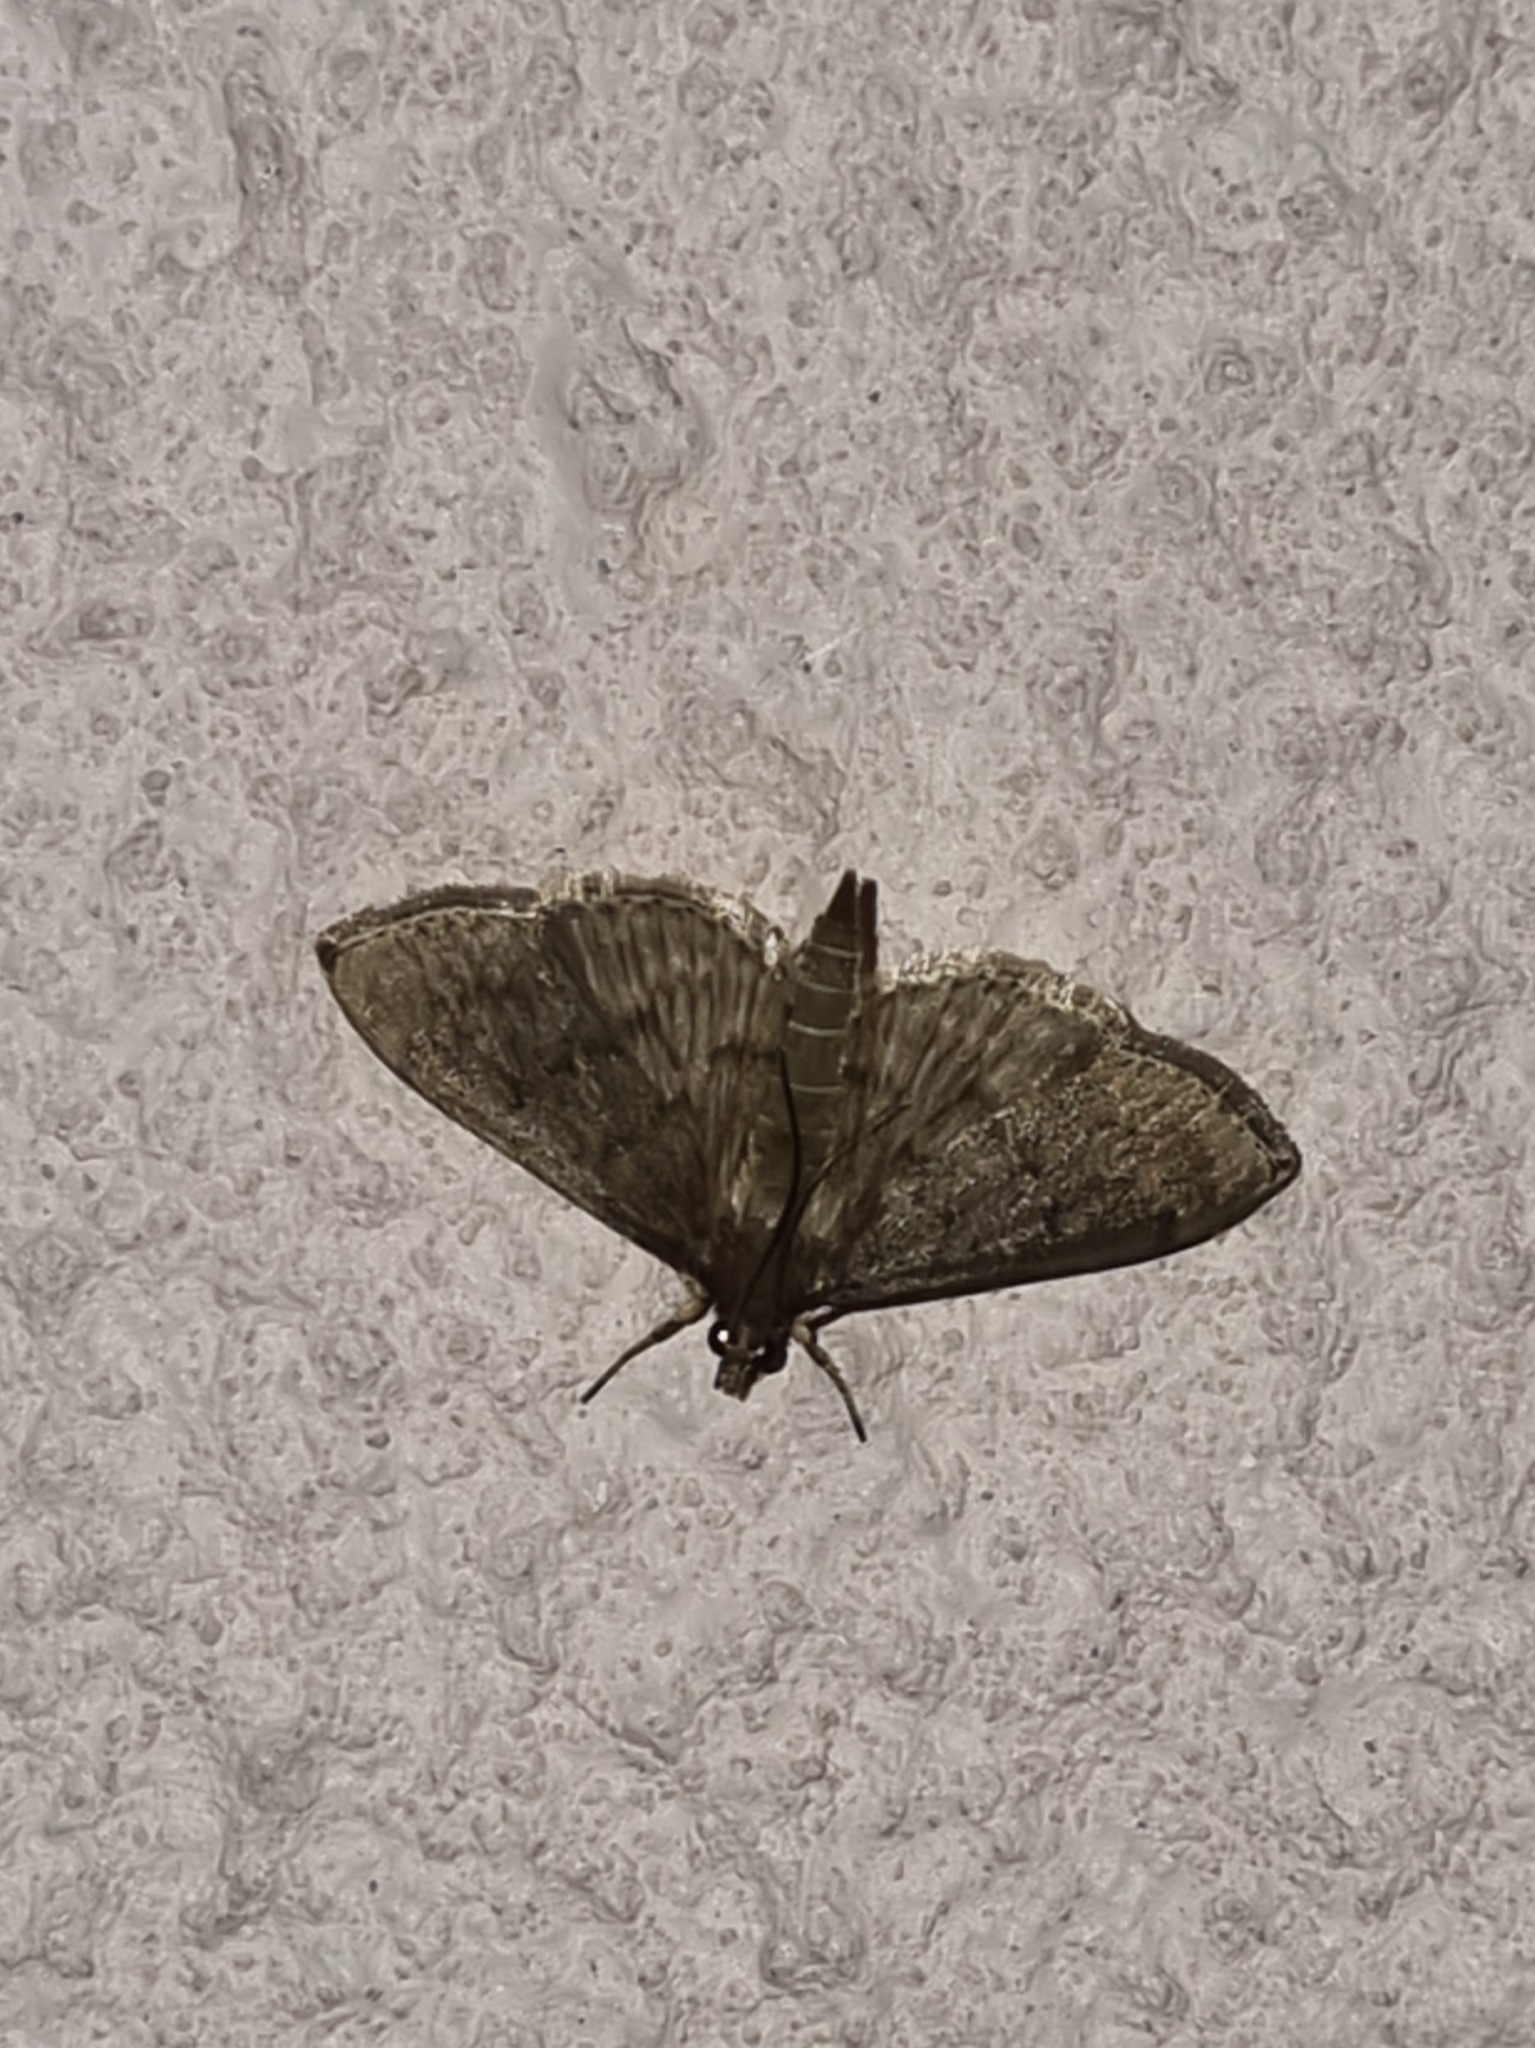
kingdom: Animalia
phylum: Arthropoda
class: Insecta
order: Lepidoptera
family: Crambidae
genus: Herpetogramma
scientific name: Herpetogramma licarsisalis
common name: Grass webworm
